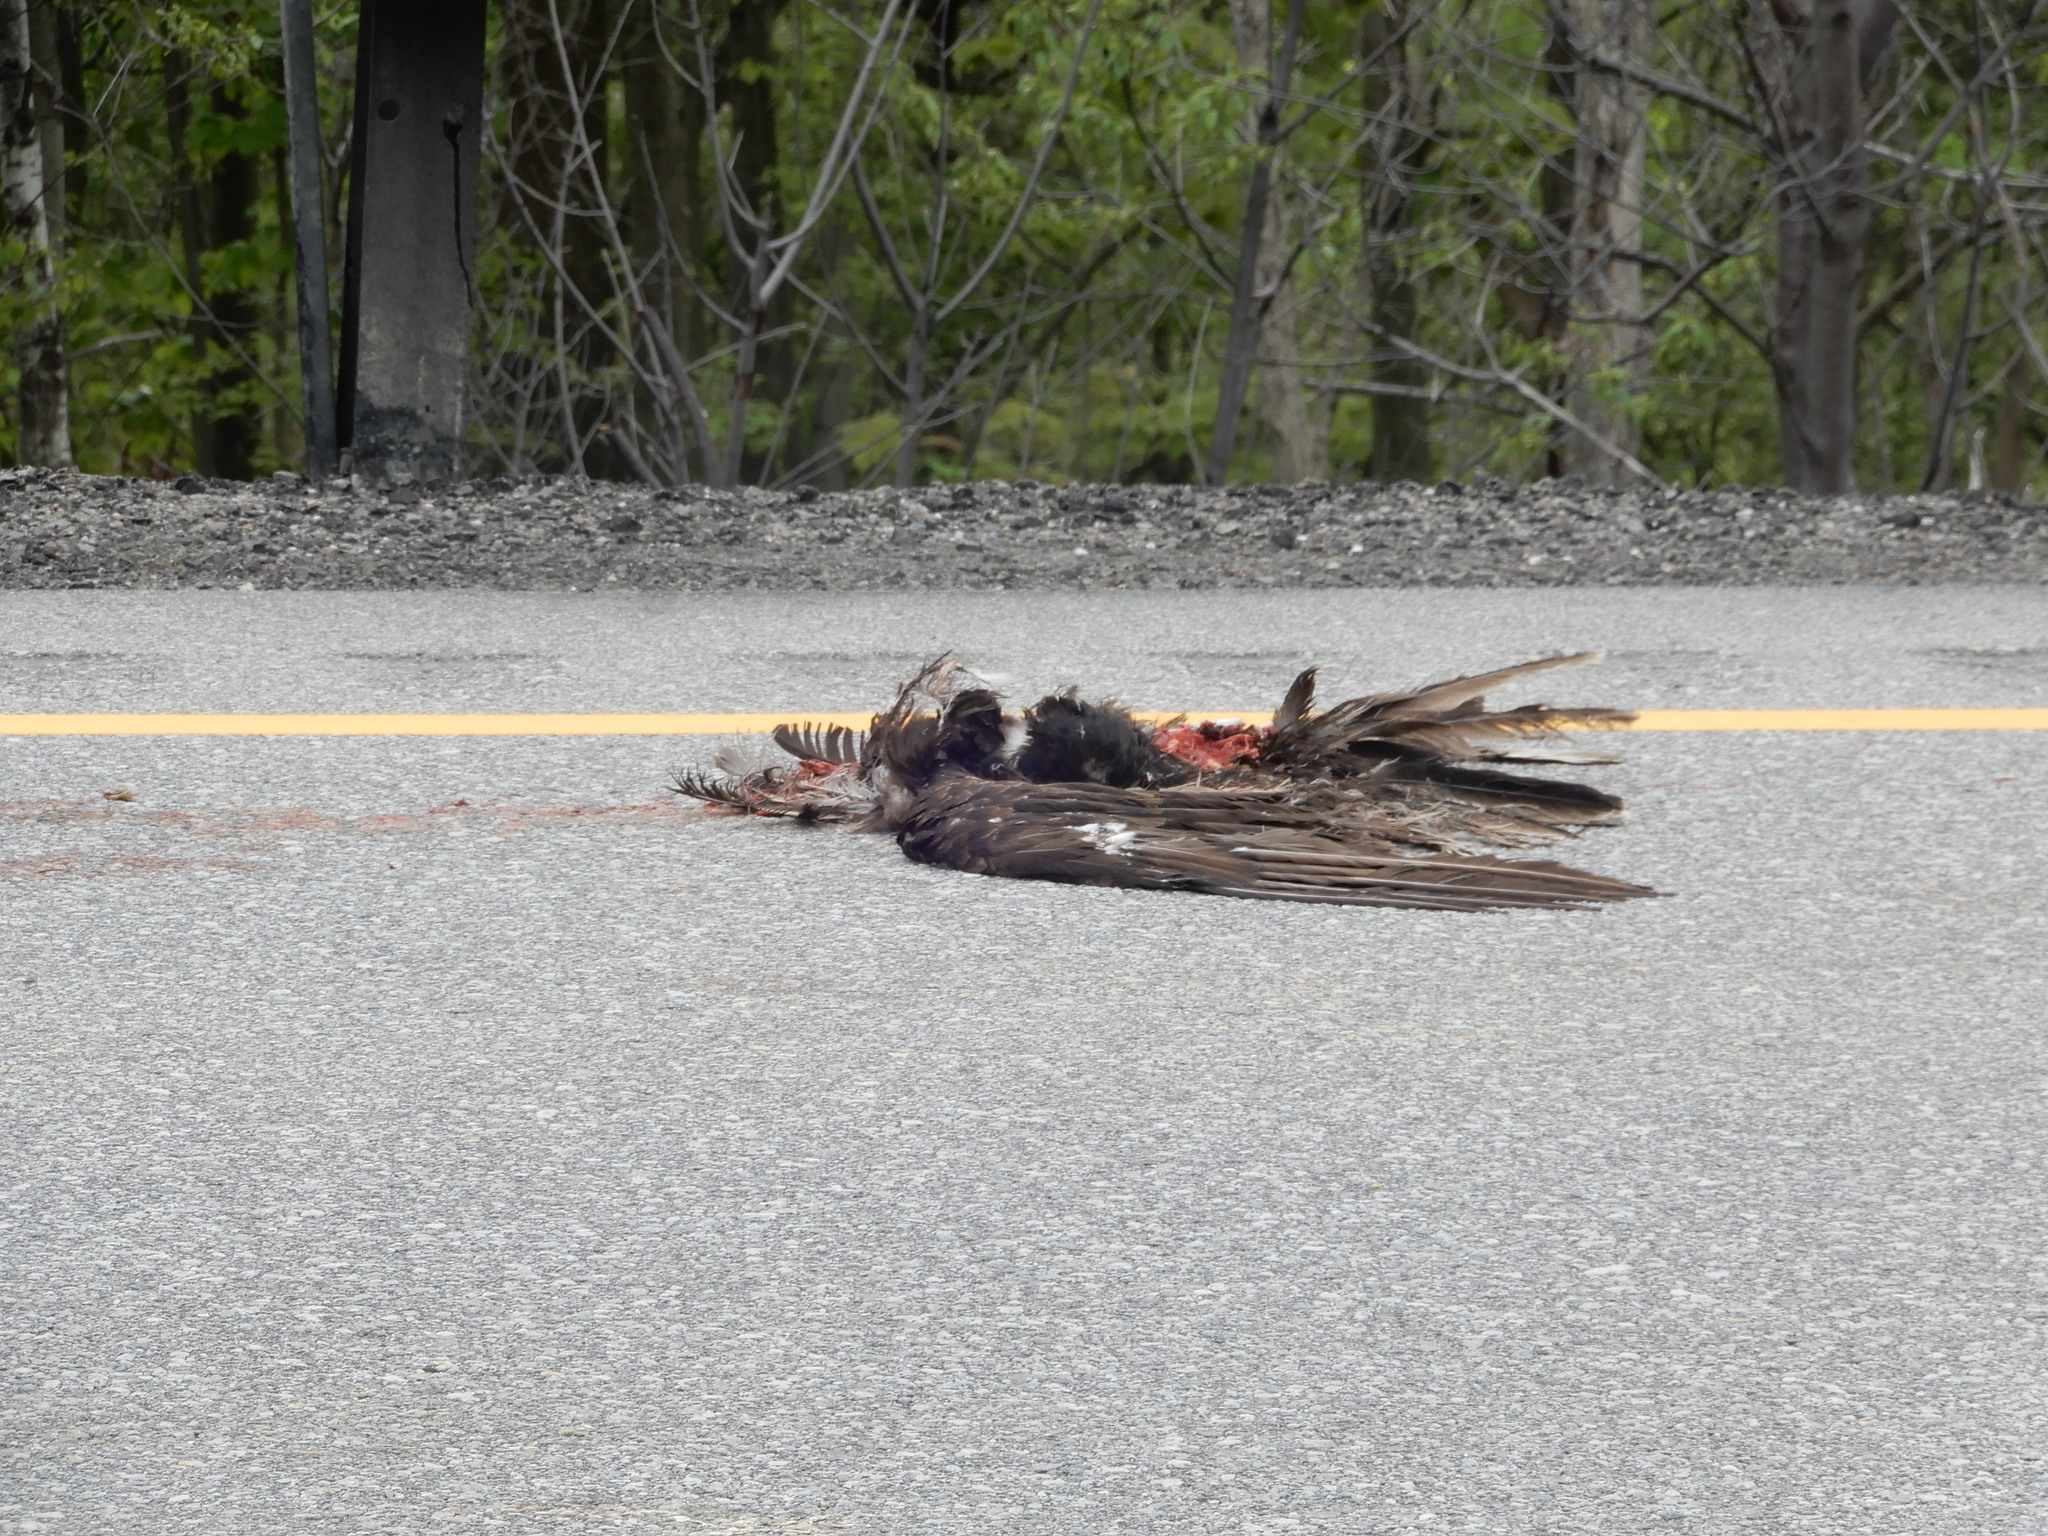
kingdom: Animalia
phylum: Chordata
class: Aves
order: Accipitriformes
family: Cathartidae
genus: Cathartes
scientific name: Cathartes aura
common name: Turkey vulture
